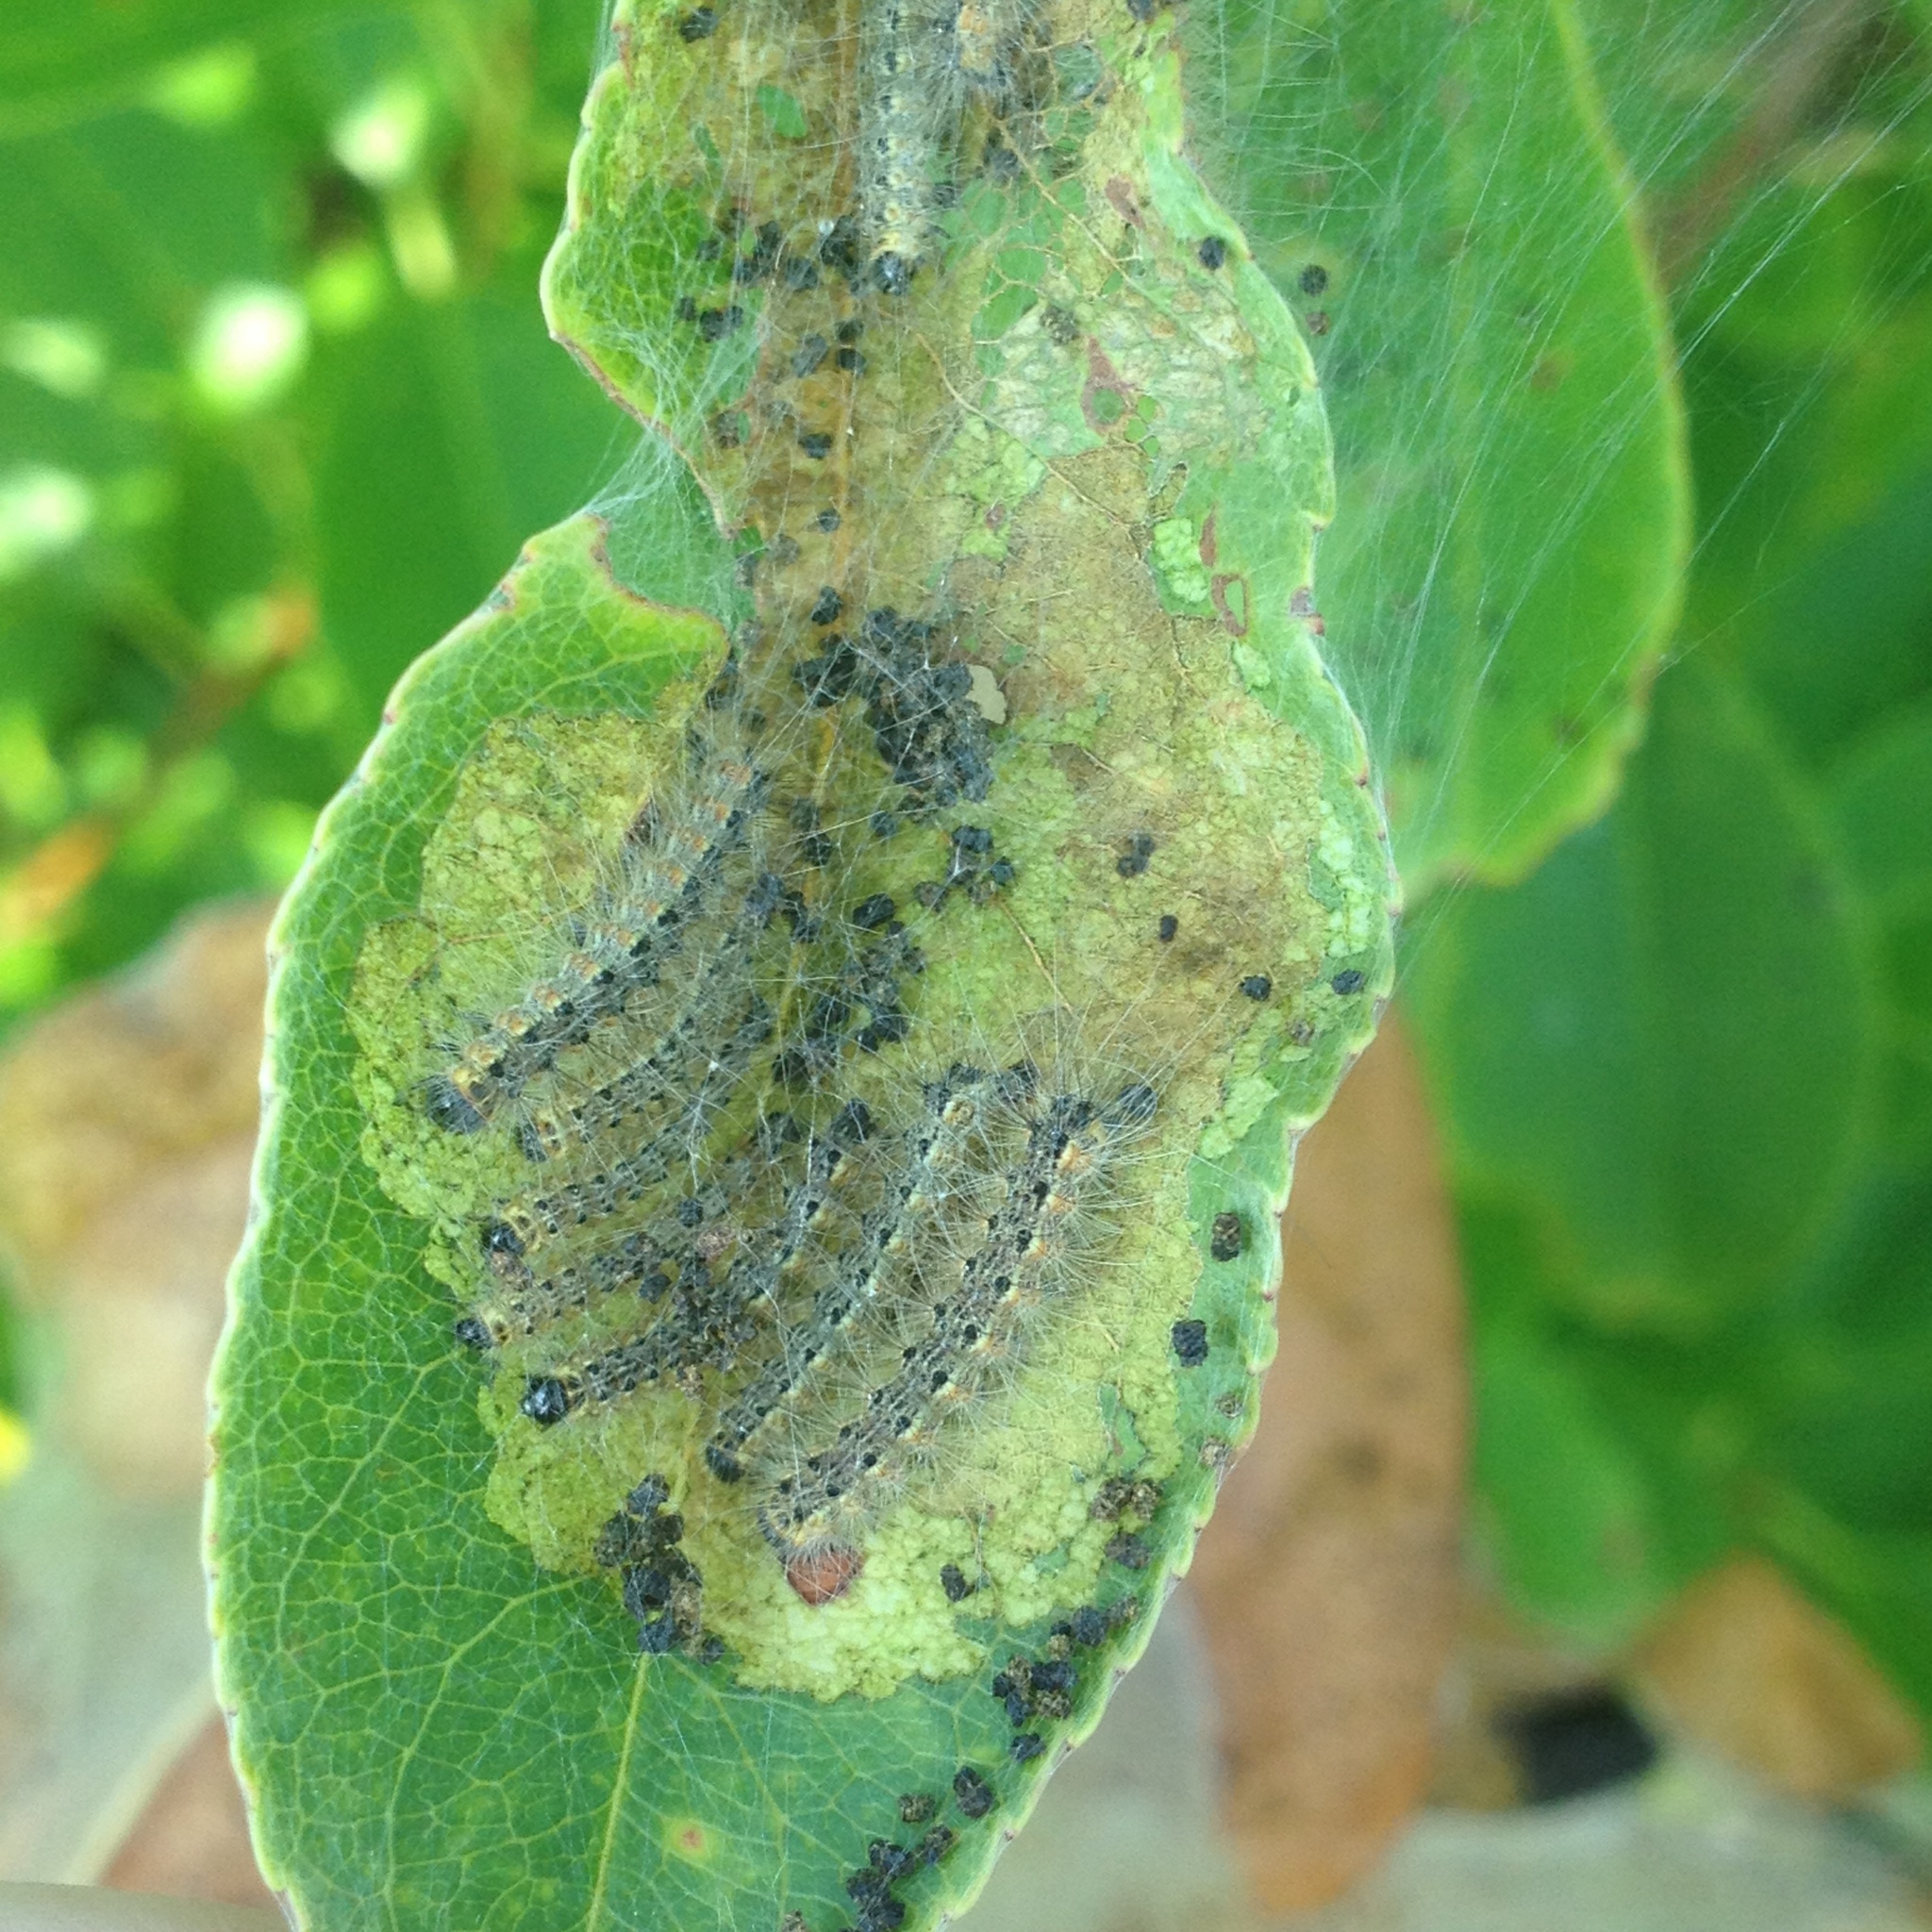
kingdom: Animalia
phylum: Arthropoda
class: Insecta
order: Lepidoptera
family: Erebidae
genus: Hyphantria
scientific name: Hyphantria cunea
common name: American white moth
